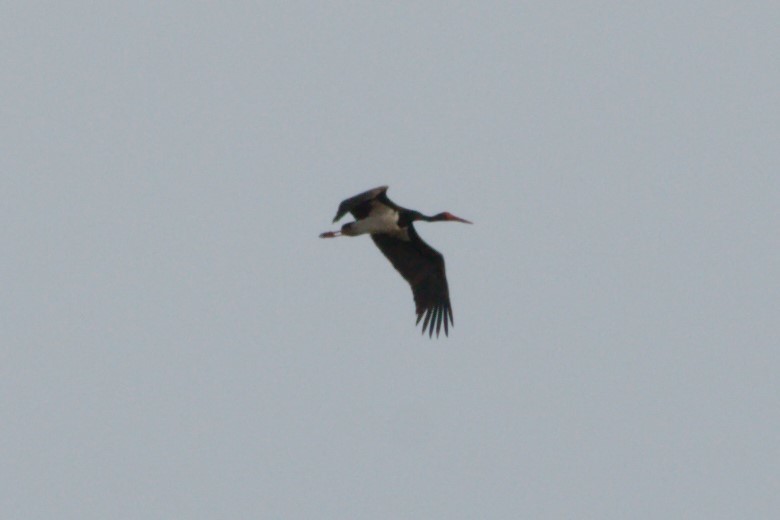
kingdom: Animalia
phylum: Chordata
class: Aves
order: Ciconiiformes
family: Ciconiidae
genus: Ciconia
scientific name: Ciconia nigra
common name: Black stork
